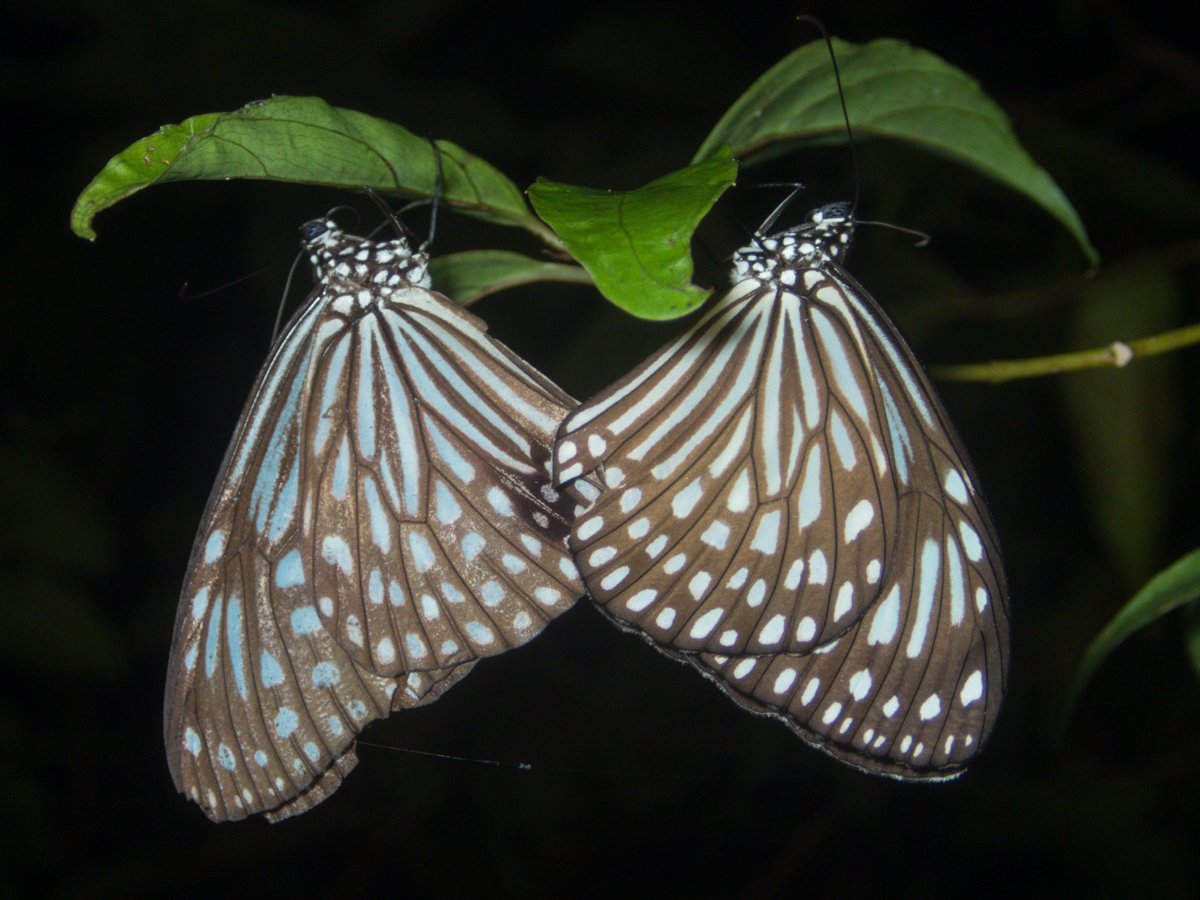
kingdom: Animalia
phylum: Arthropoda
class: Insecta
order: Lepidoptera
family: Nymphalidae
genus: Parantica
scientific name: Parantica agleoides
